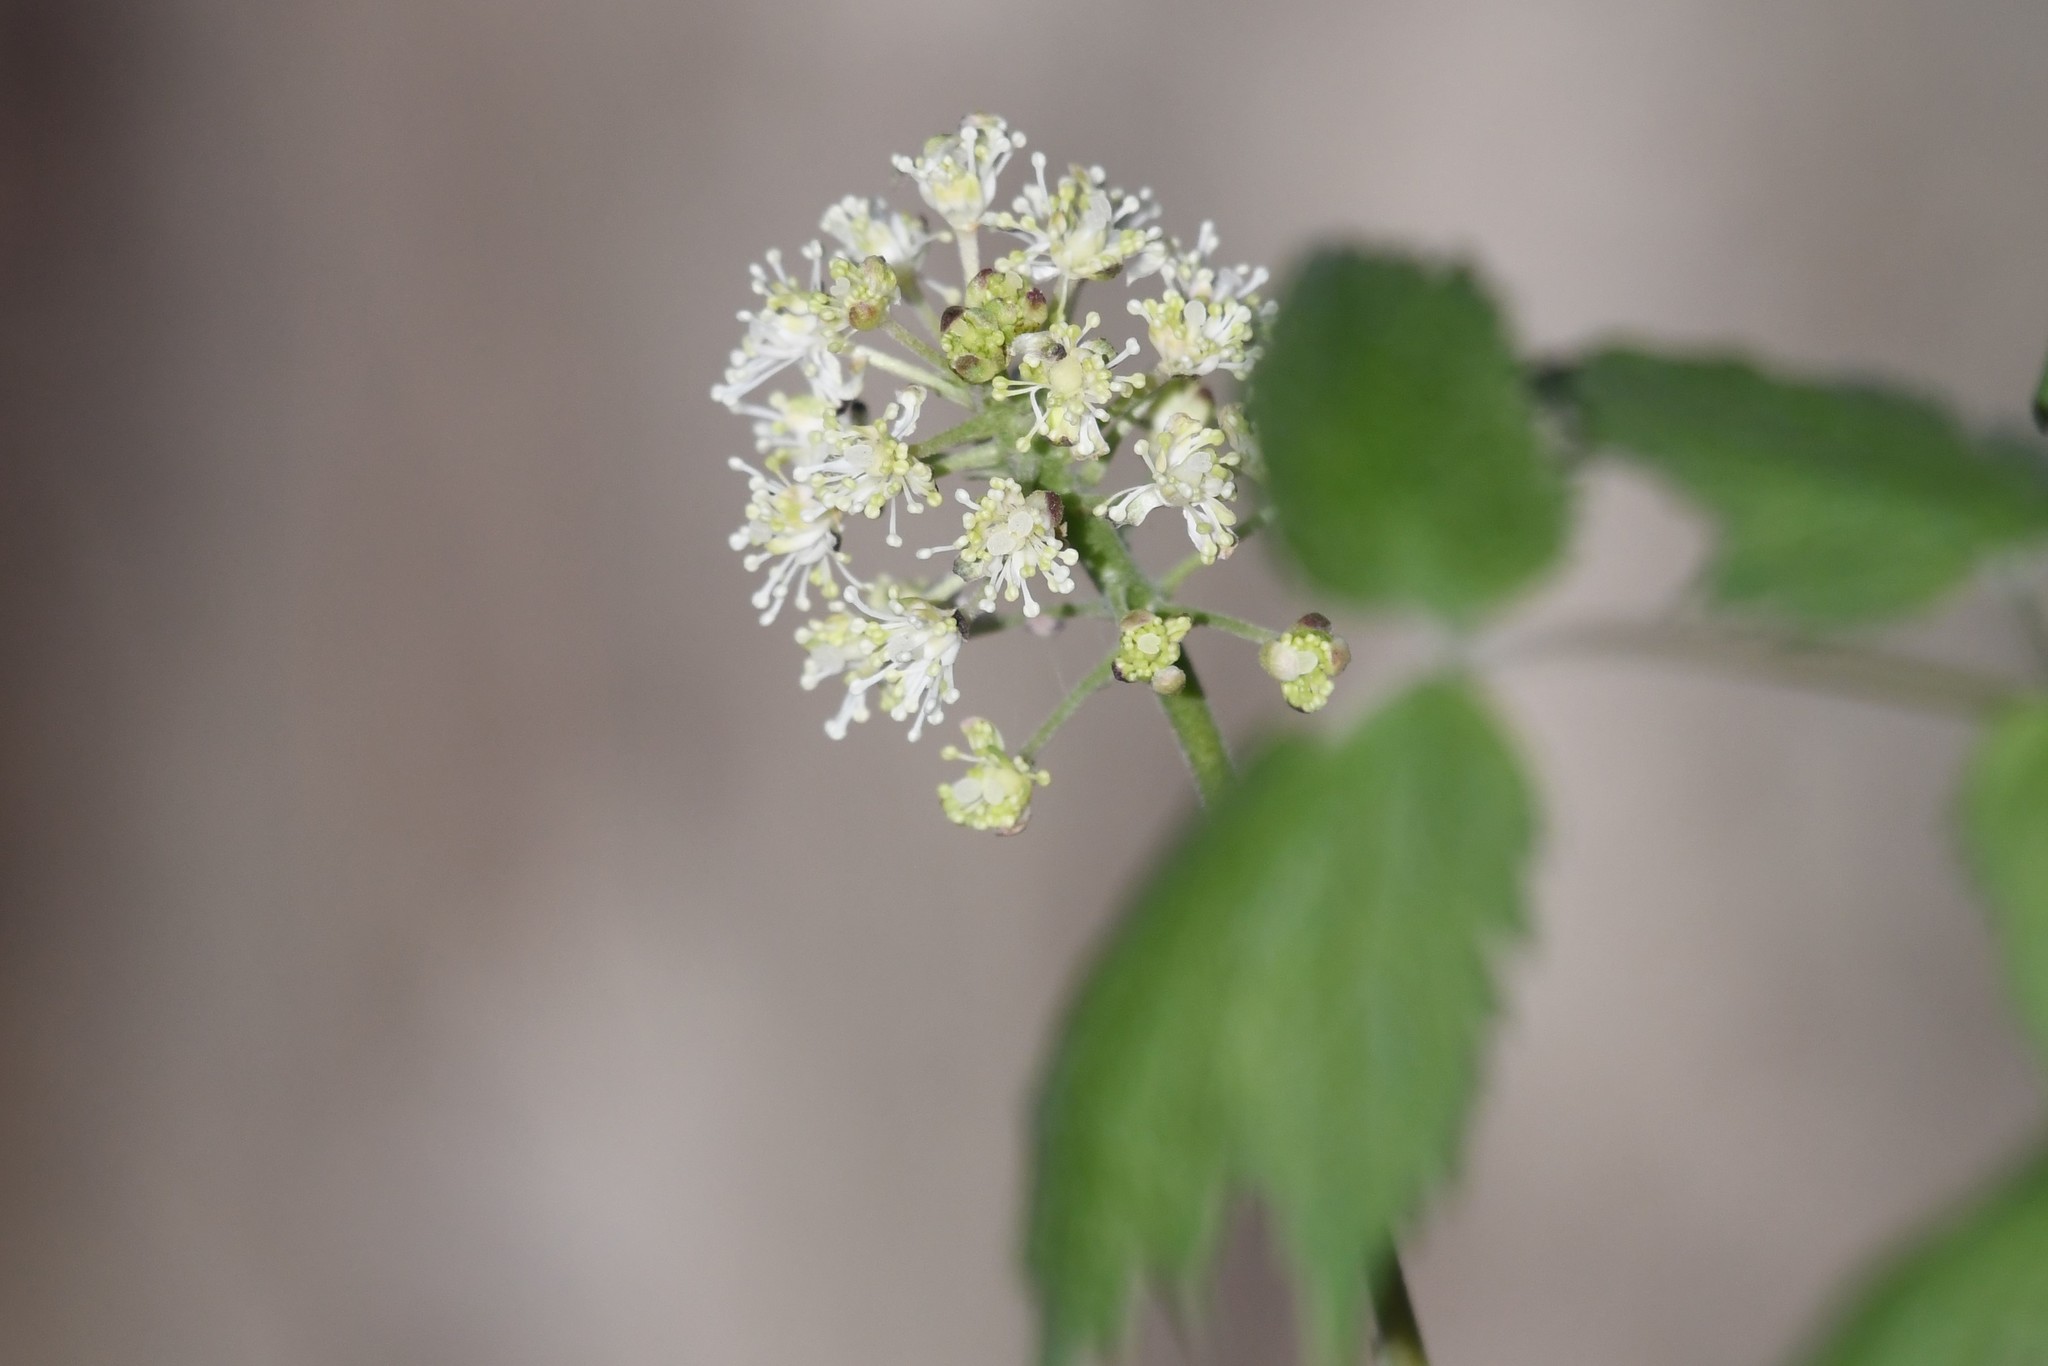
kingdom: Plantae
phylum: Tracheophyta
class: Magnoliopsida
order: Ranunculales
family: Ranunculaceae
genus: Actaea
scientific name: Actaea rubra
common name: Red baneberry
